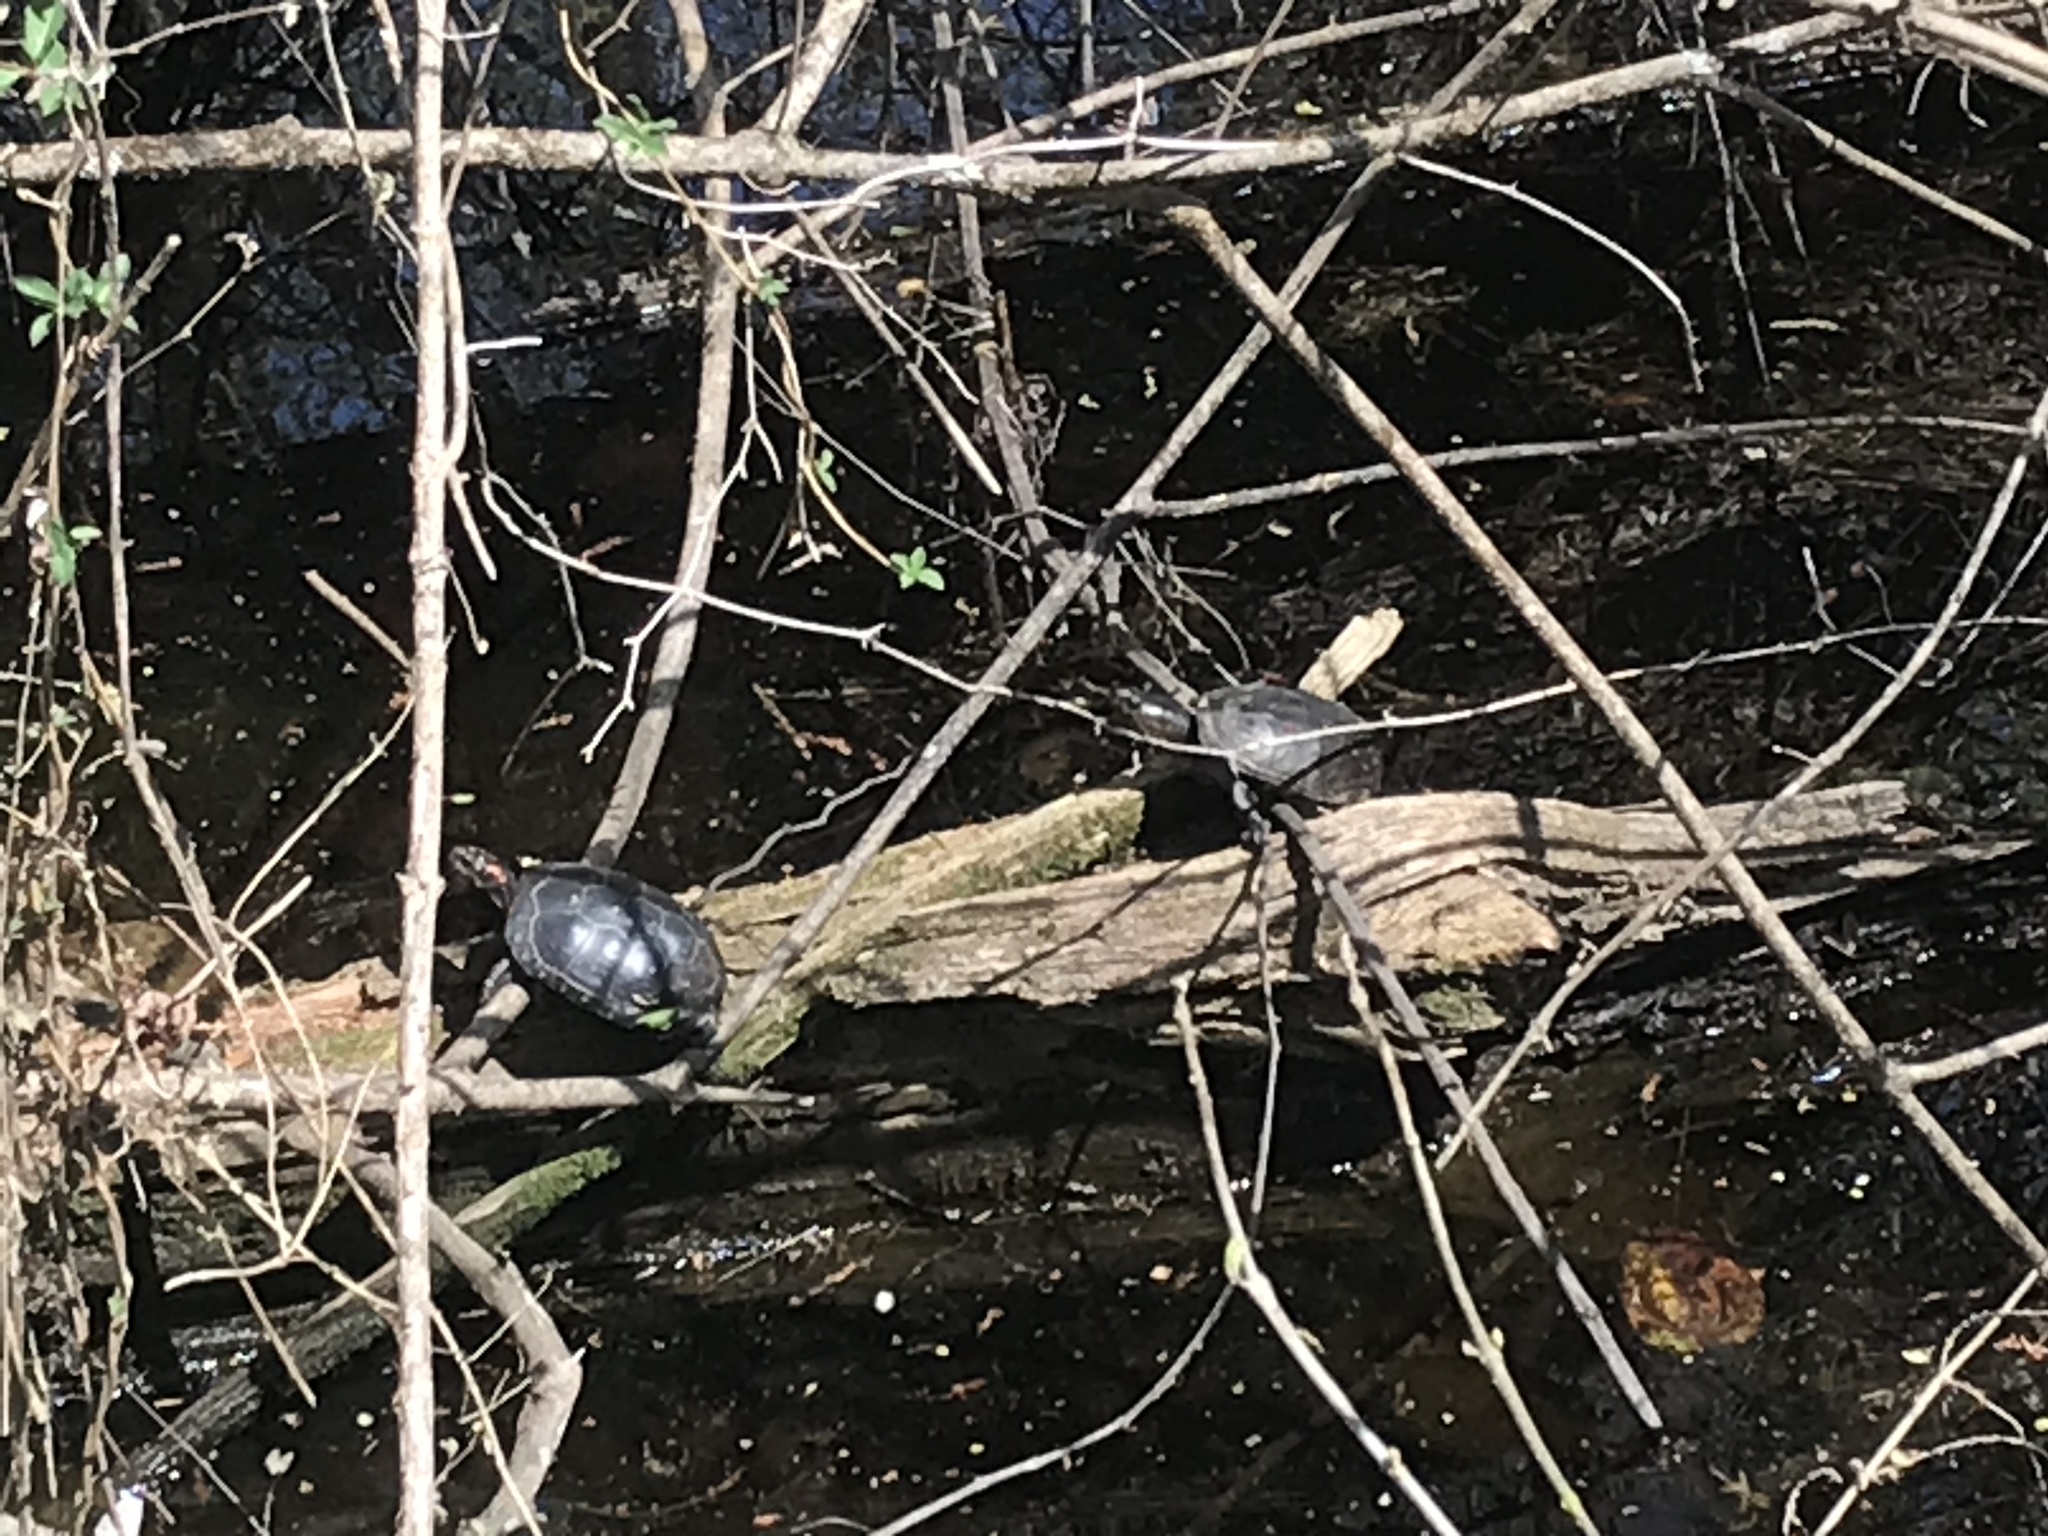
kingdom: Animalia
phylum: Chordata
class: Testudines
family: Emydidae
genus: Clemmys
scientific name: Clemmys guttata
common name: Spotted turtle
